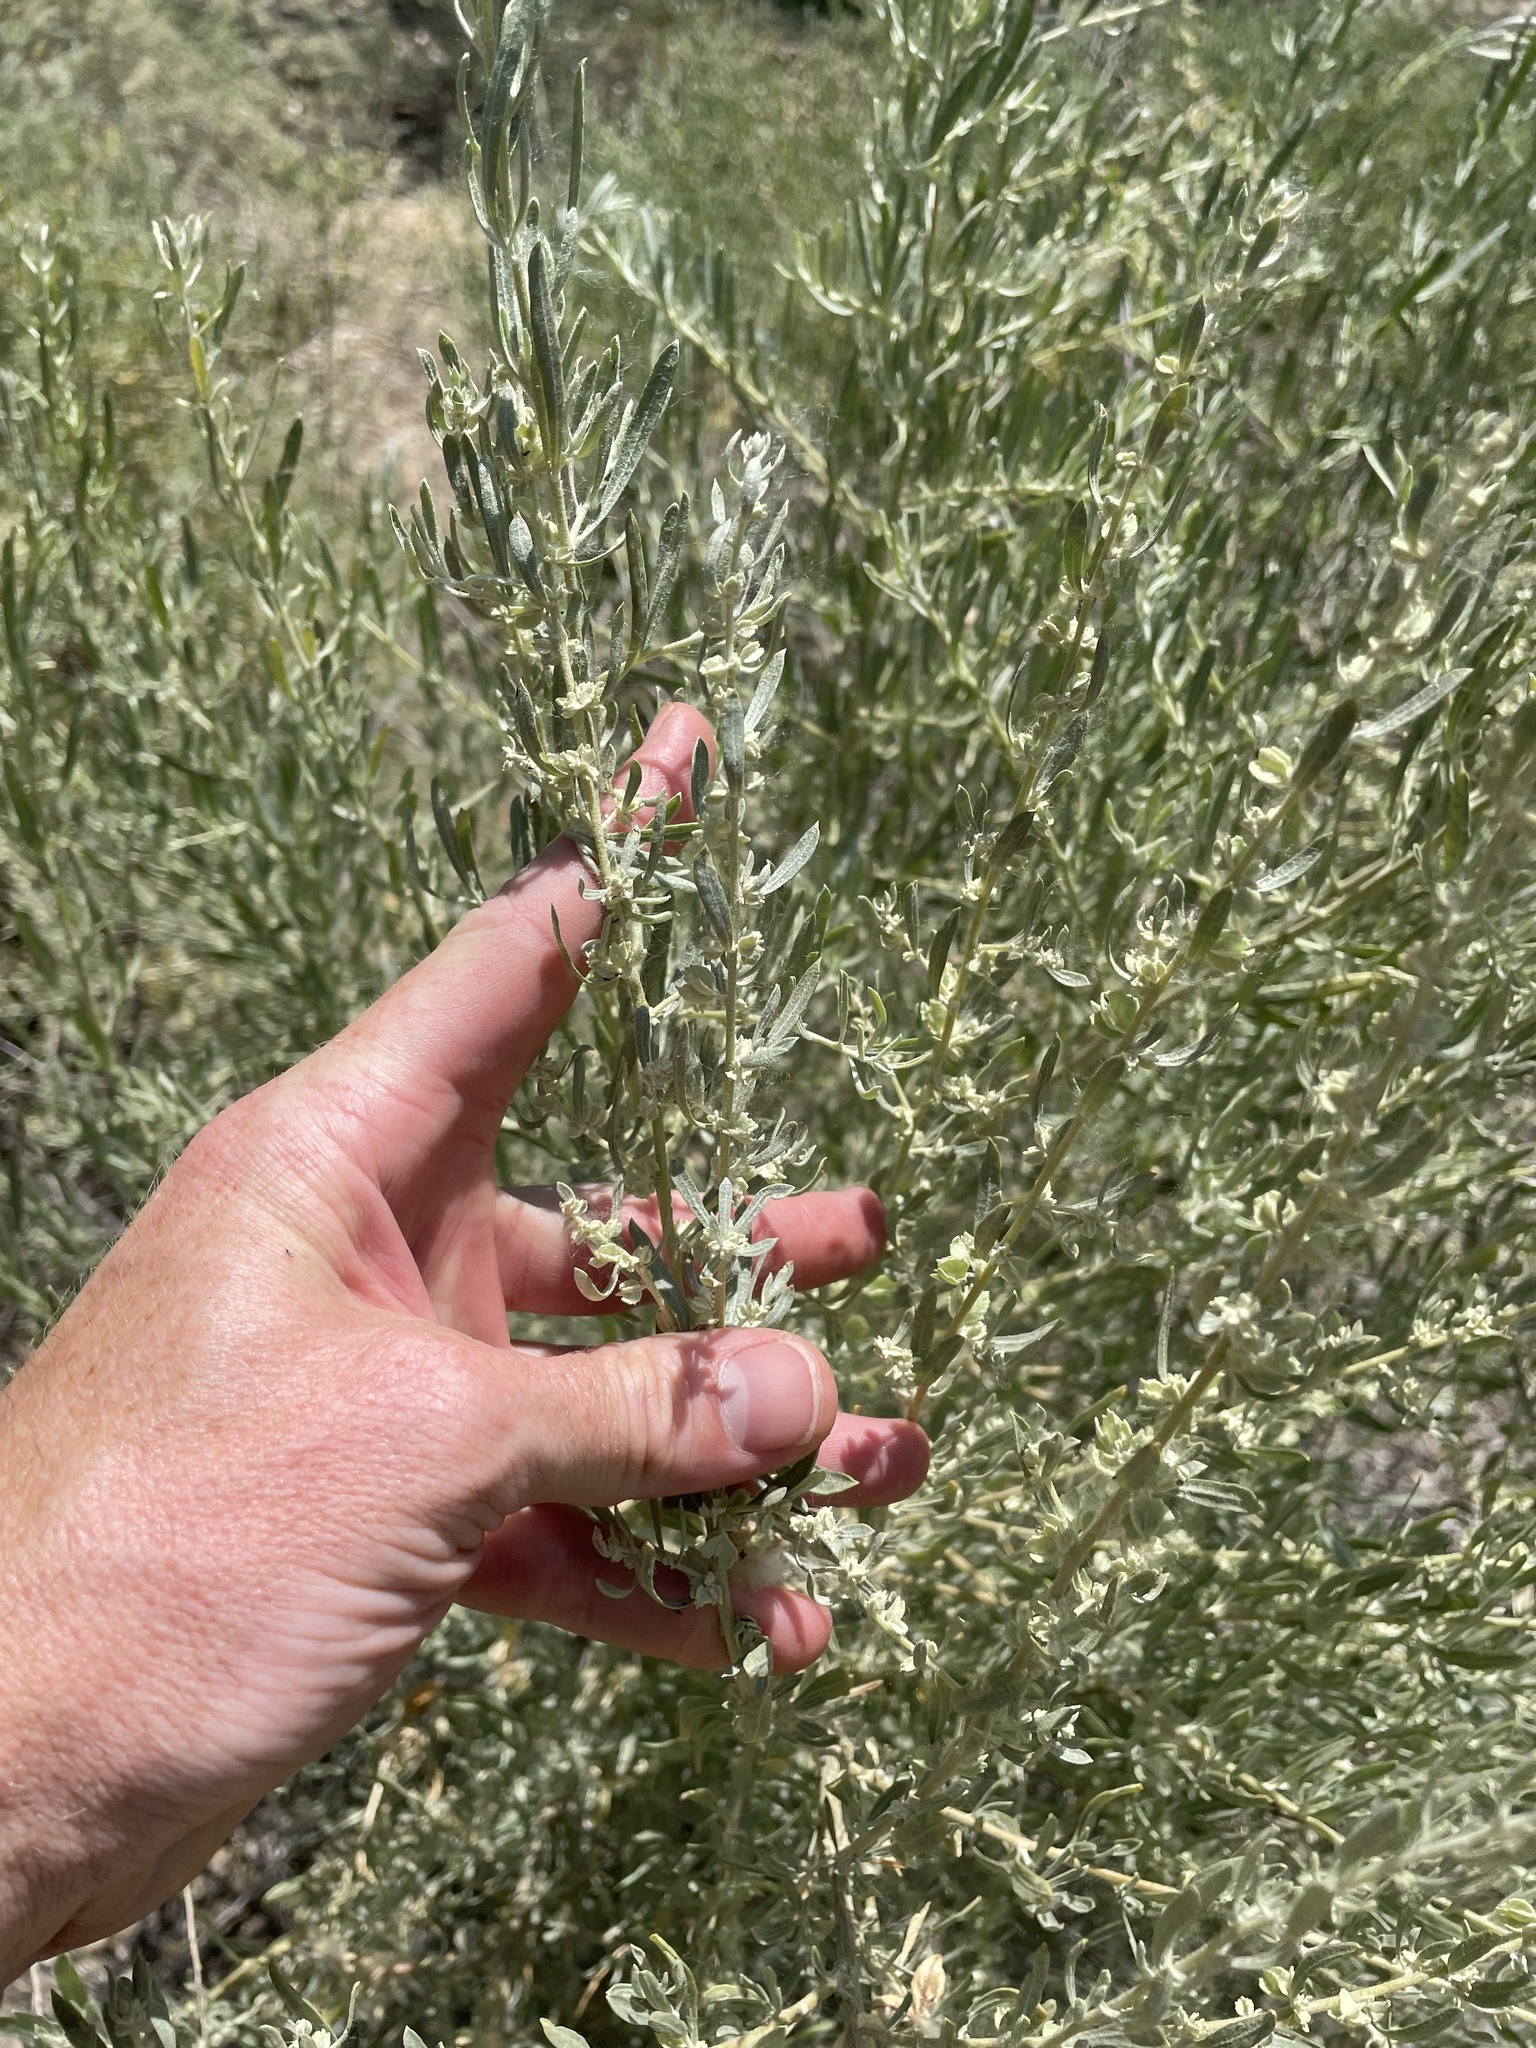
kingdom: Plantae
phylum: Tracheophyta
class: Magnoliopsida
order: Caryophyllales
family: Amaranthaceae
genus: Atriplex
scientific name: Atriplex canescens
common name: Four-wing saltbush
